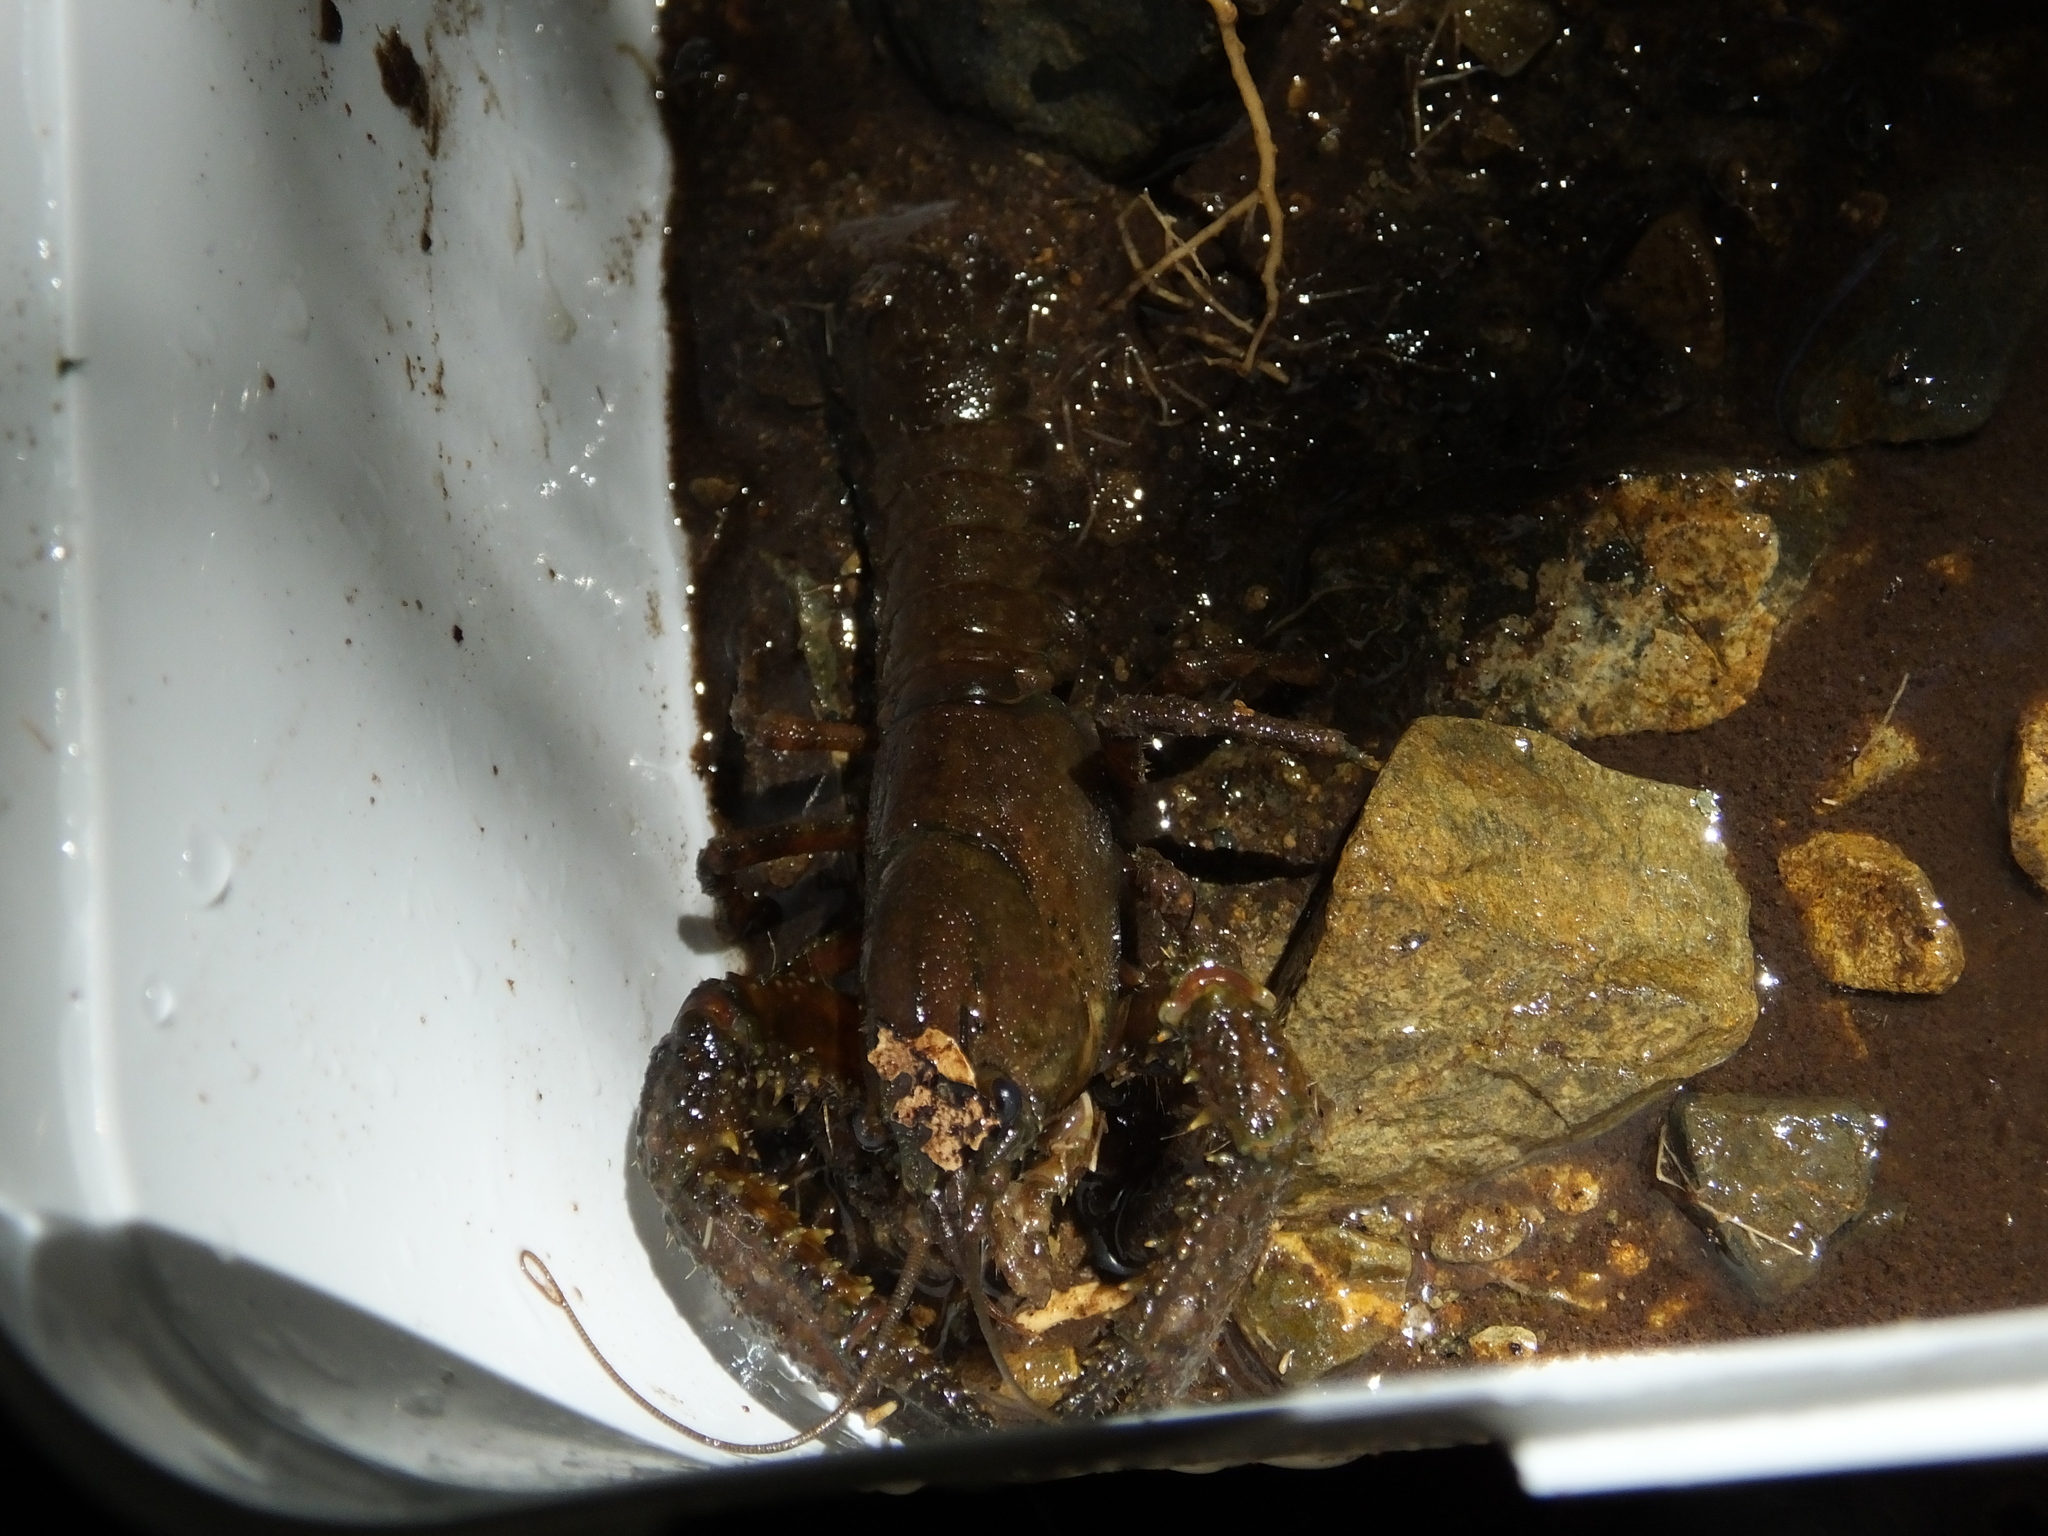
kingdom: Animalia
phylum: Arthropoda
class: Malacostraca
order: Decapoda
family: Parastacidae
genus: Paranephrops
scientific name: Paranephrops planifrons
